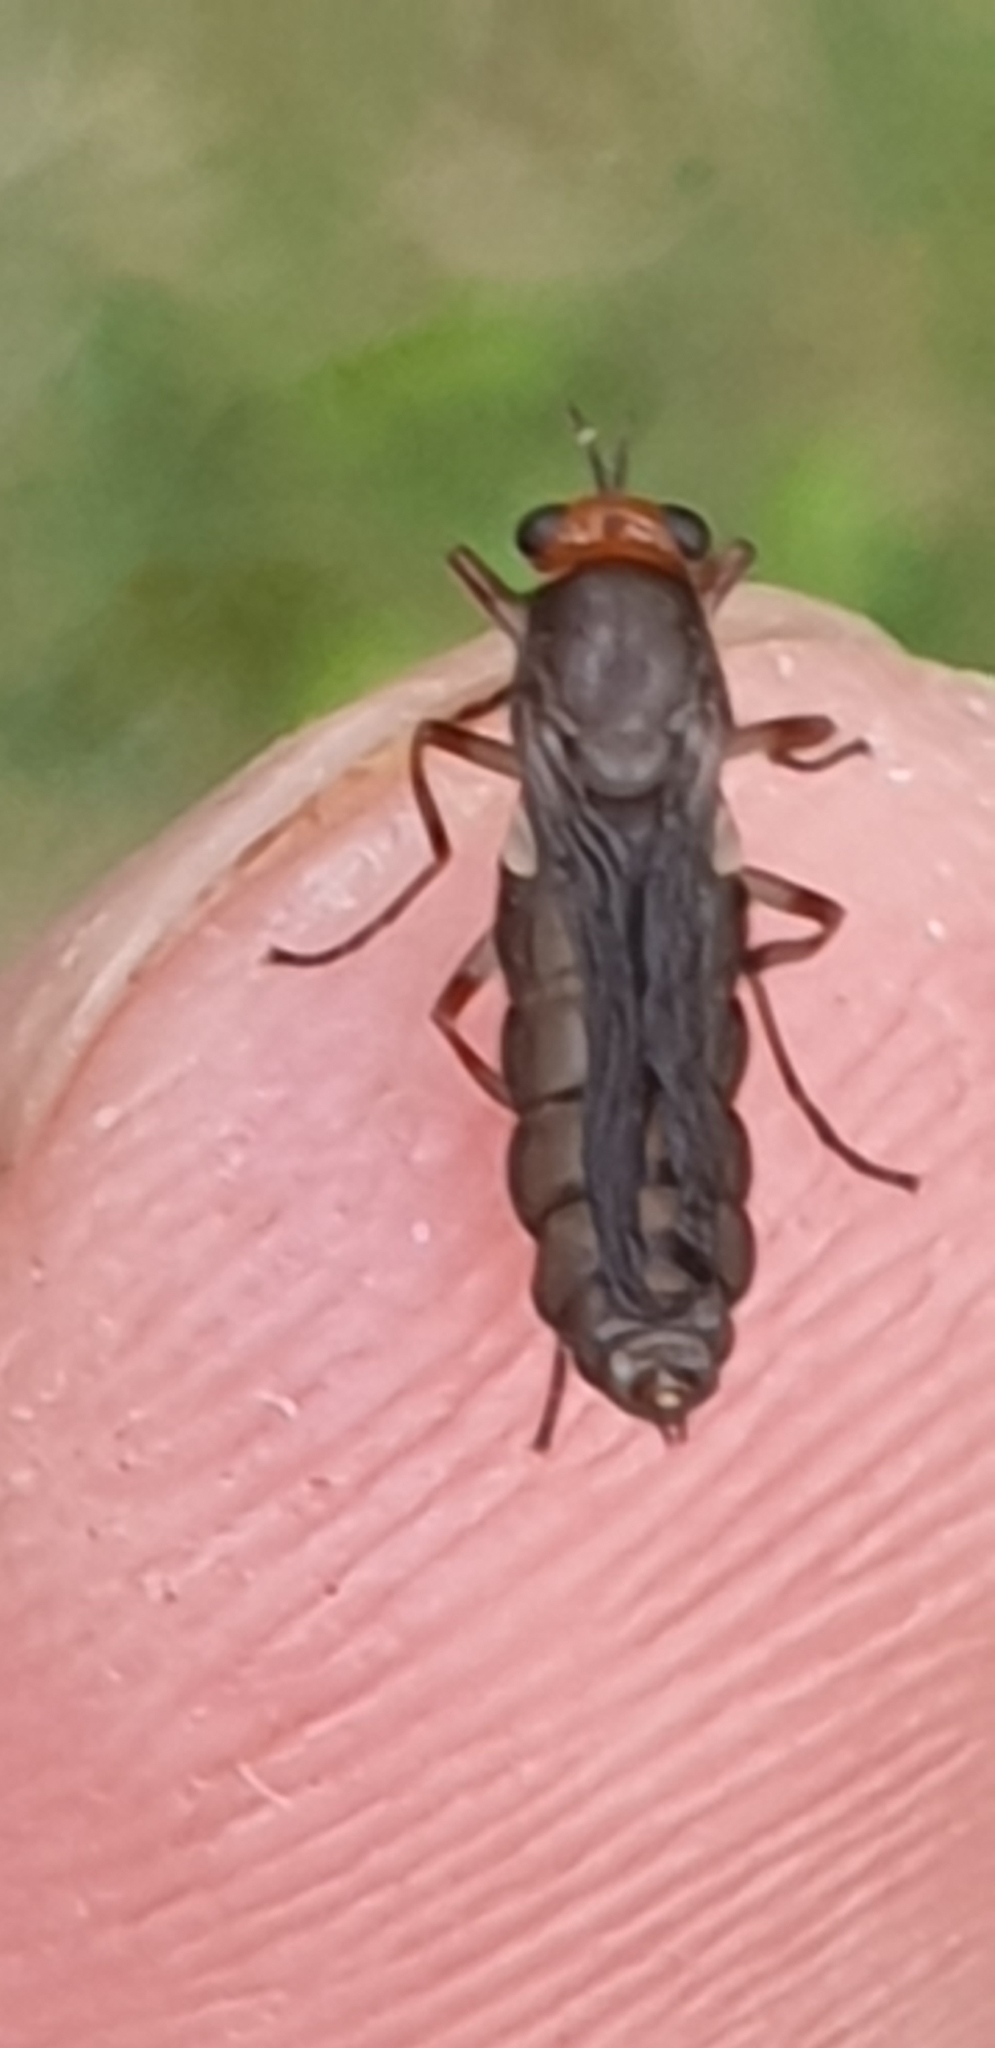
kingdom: Animalia
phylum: Arthropoda
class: Insecta
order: Diptera
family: Stratiomyidae
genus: Inopus
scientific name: Inopus rubriceps
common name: Soldier fly
